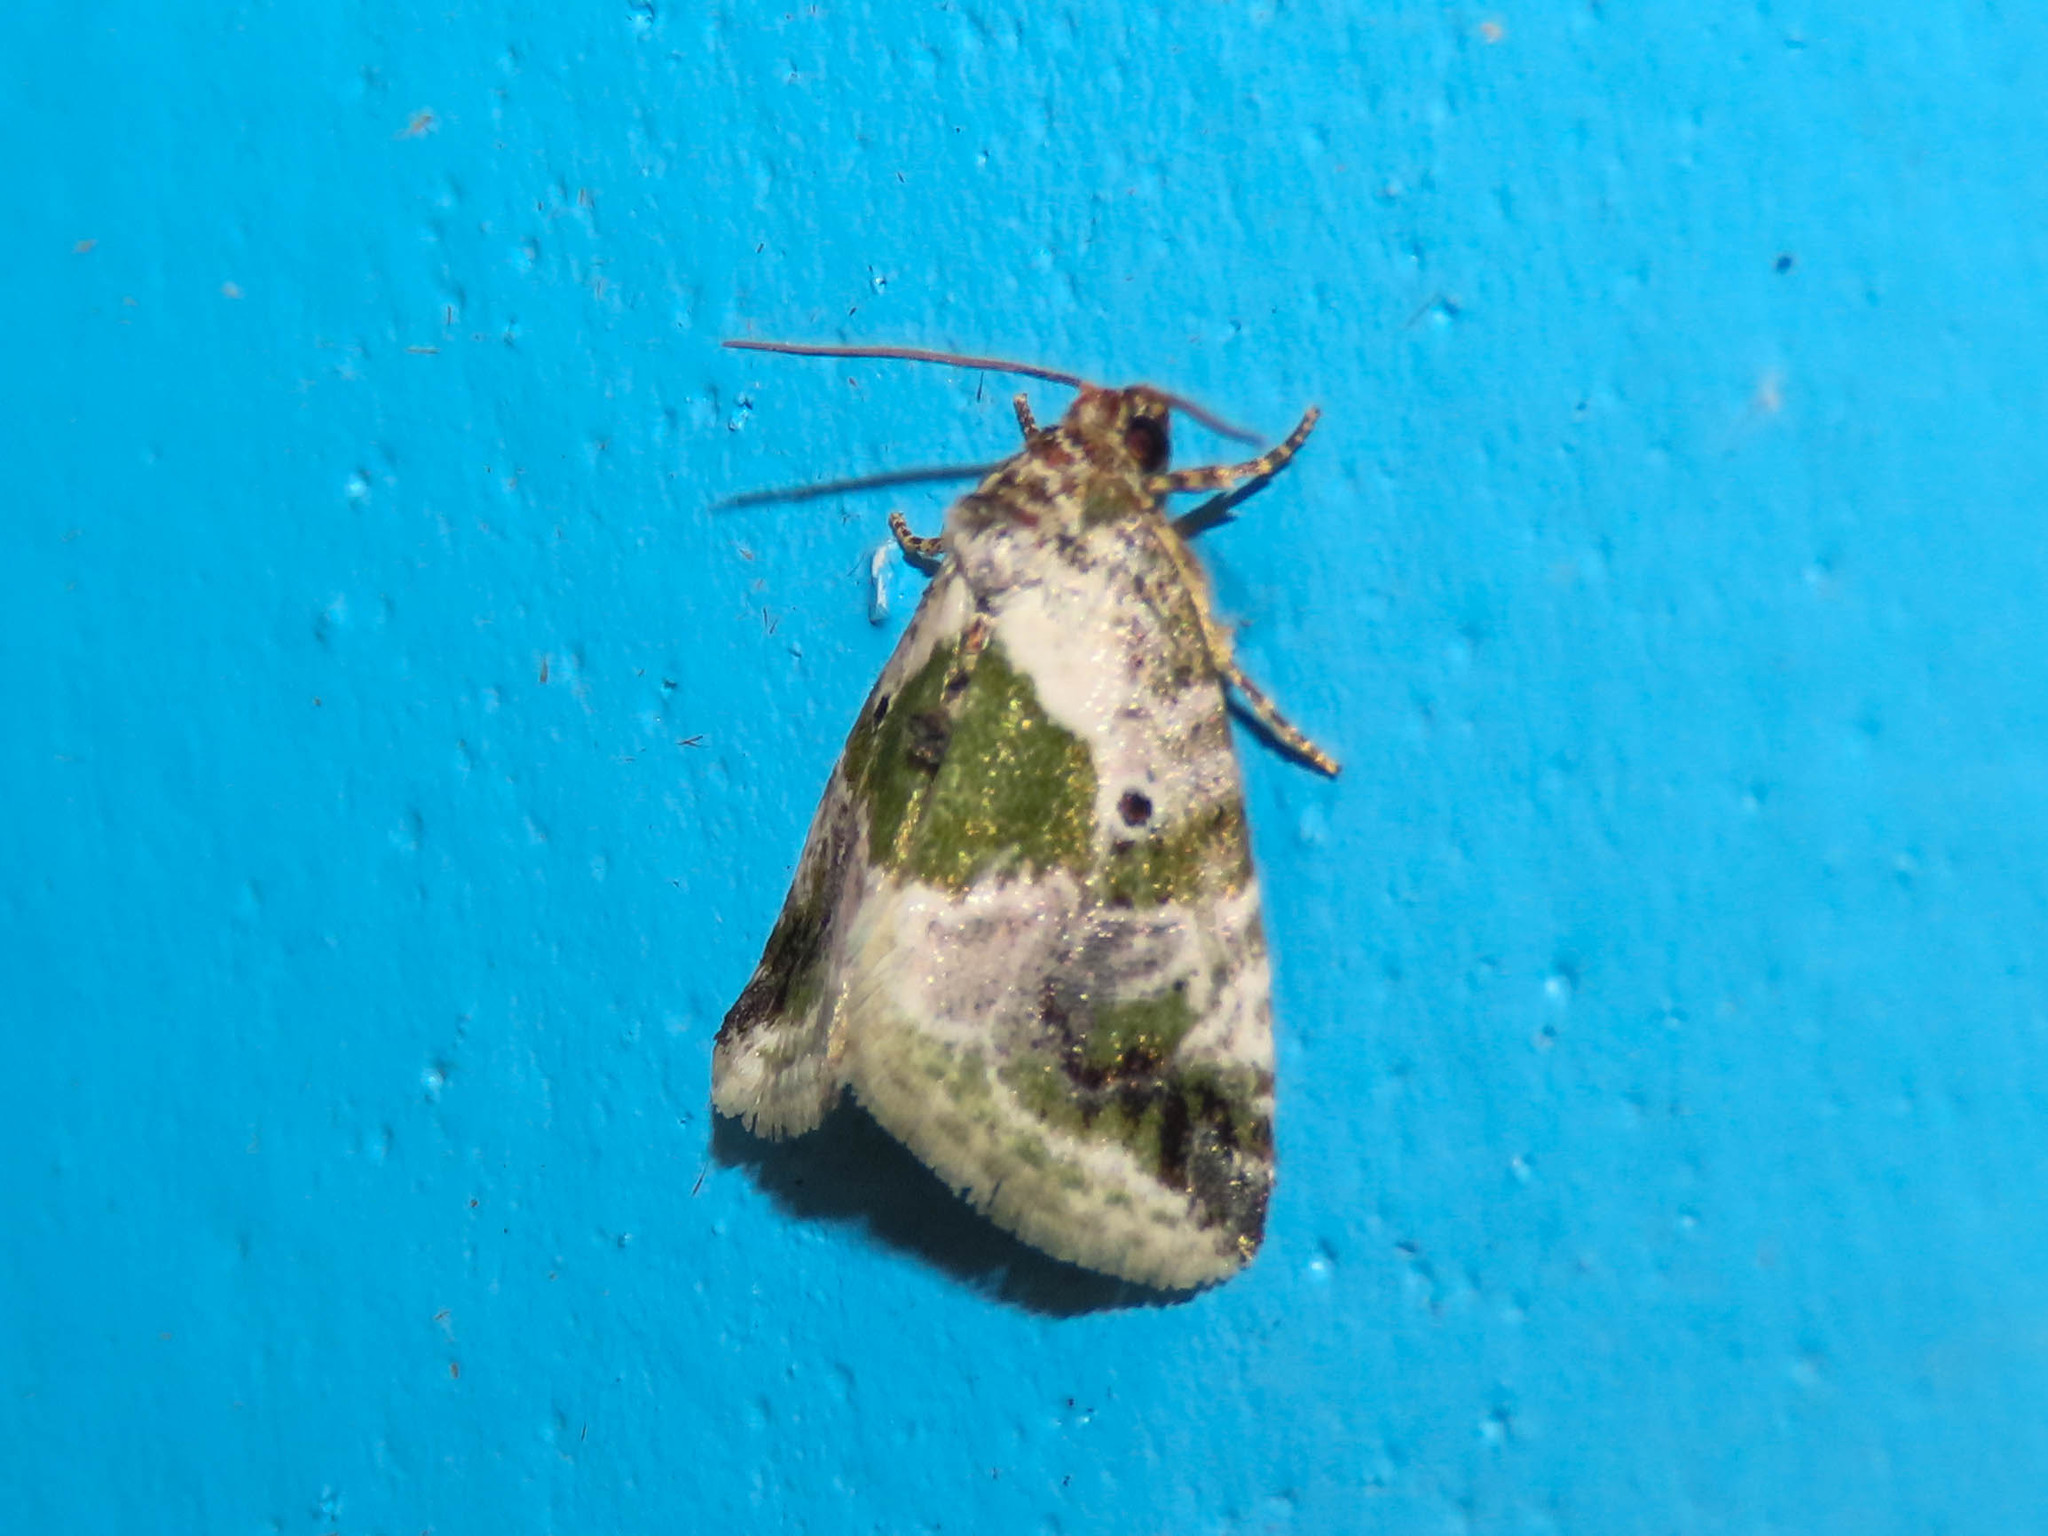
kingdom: Animalia
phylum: Arthropoda
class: Insecta
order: Lepidoptera
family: Noctuidae
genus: Maliattha
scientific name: Maliattha synochitis
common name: Black-dotted glyph
